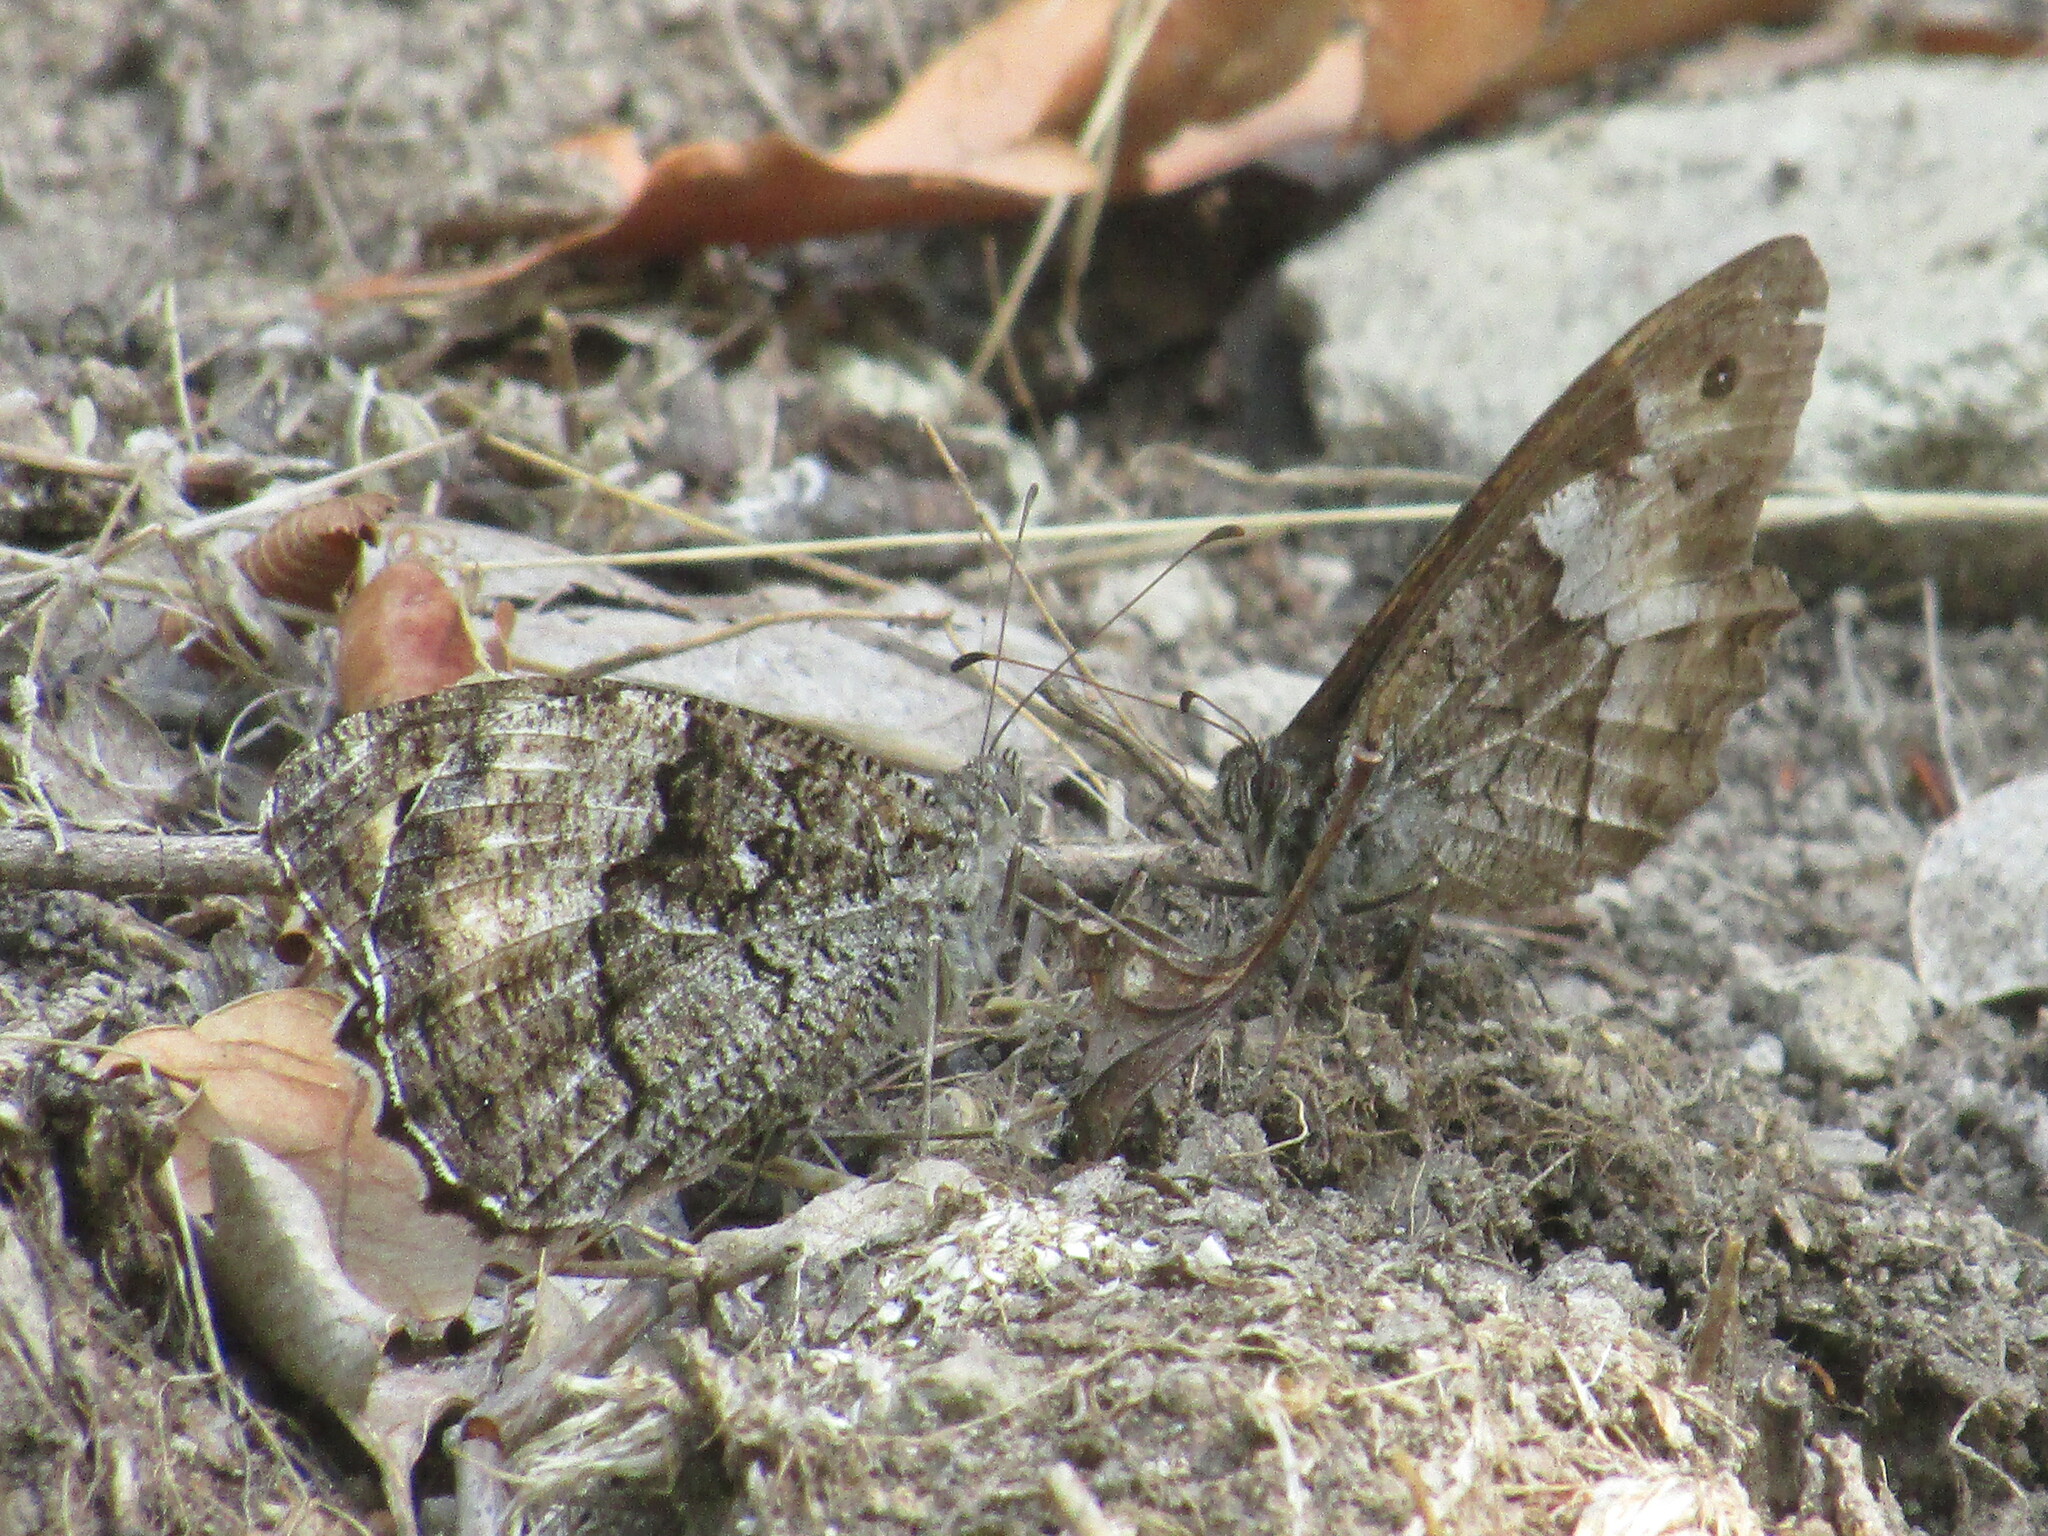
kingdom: Animalia
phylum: Arthropoda
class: Insecta
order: Lepidoptera
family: Nymphalidae
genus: Hipparchia
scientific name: Hipparchia
